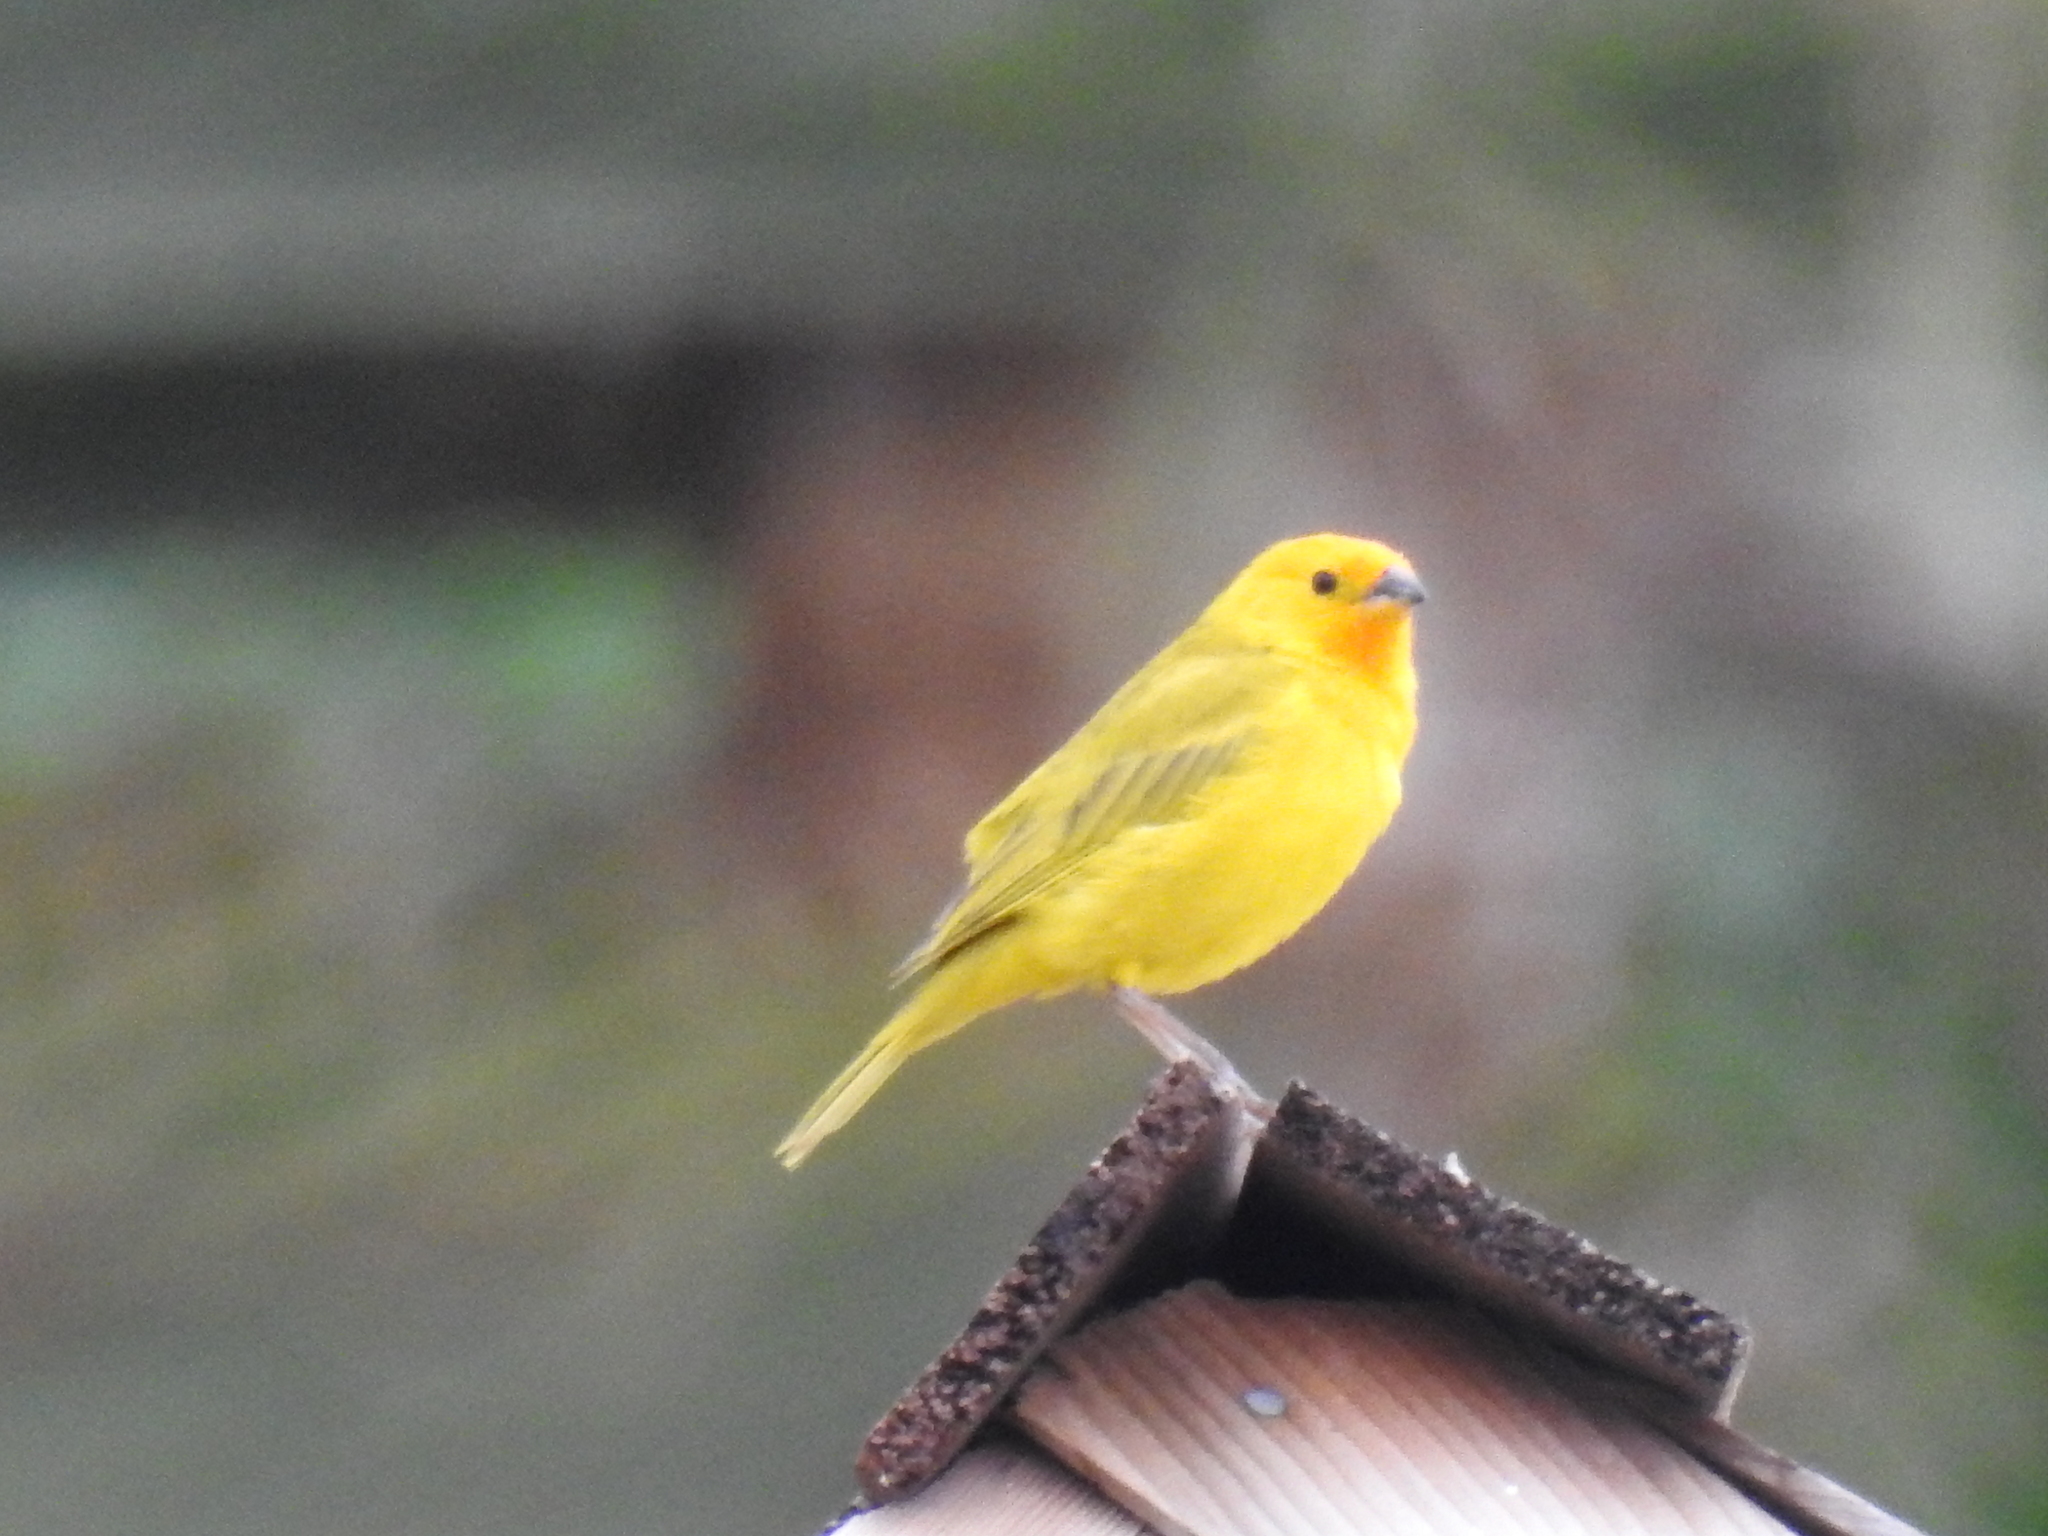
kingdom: Animalia
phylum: Chordata
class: Aves
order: Passeriformes
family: Thraupidae
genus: Sicalis
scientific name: Sicalis flaveola
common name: Saffron finch
